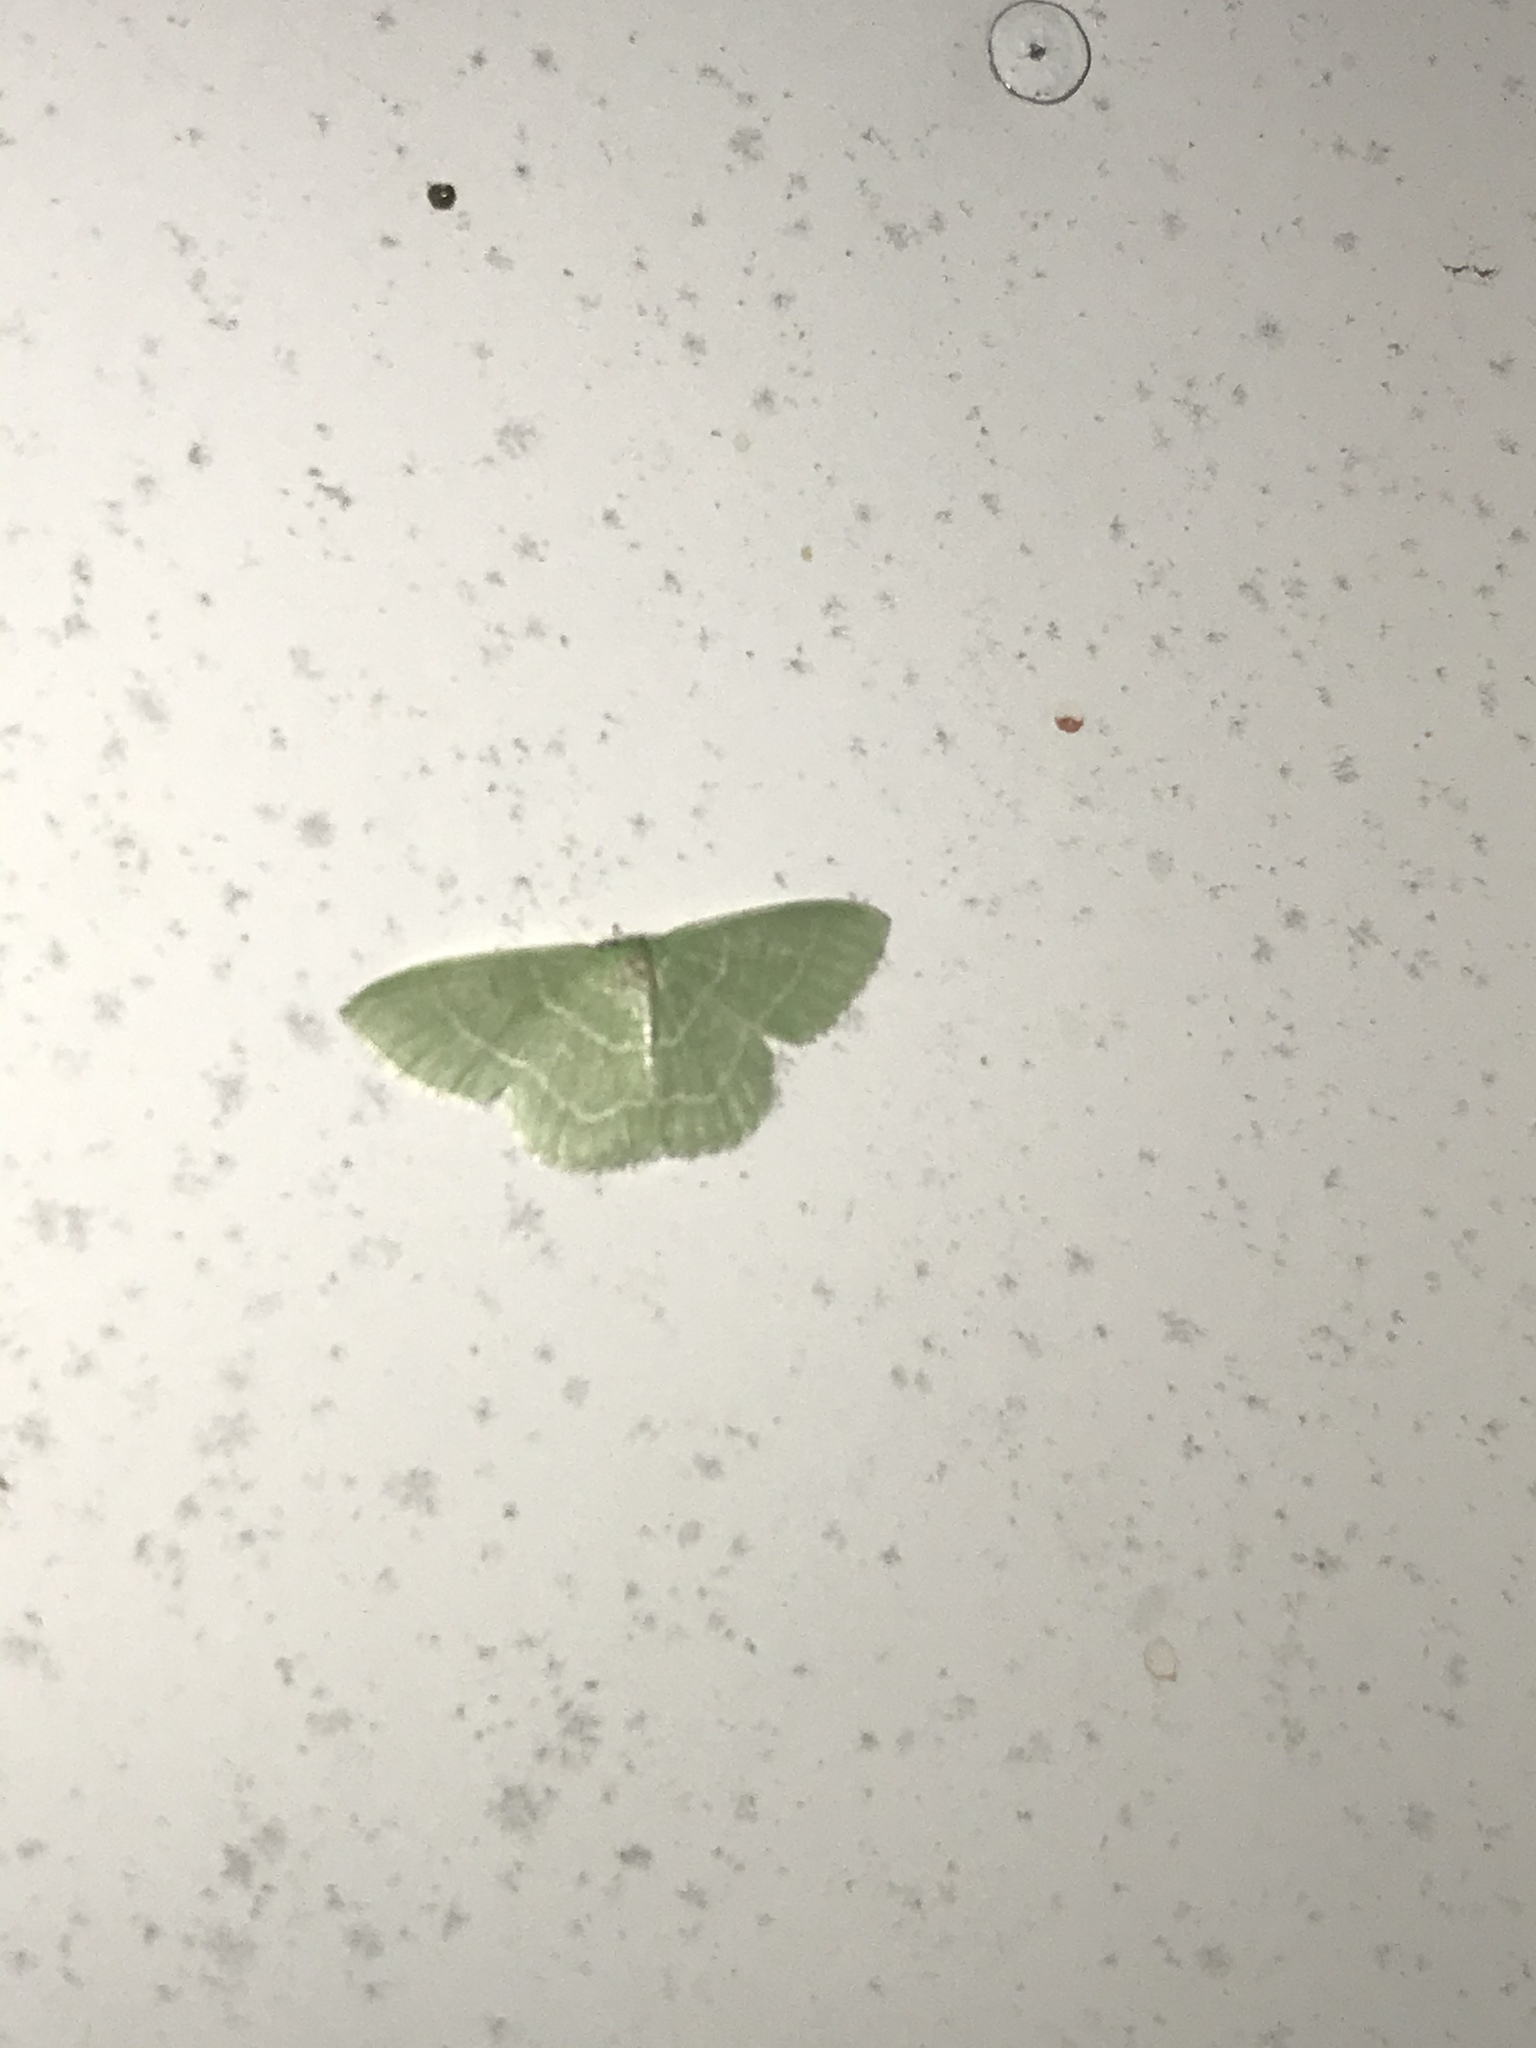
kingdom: Animalia
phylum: Arthropoda
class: Insecta
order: Lepidoptera
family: Geometridae
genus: Synchlora
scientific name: Synchlora aerata
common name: Wavy-lined emerald
